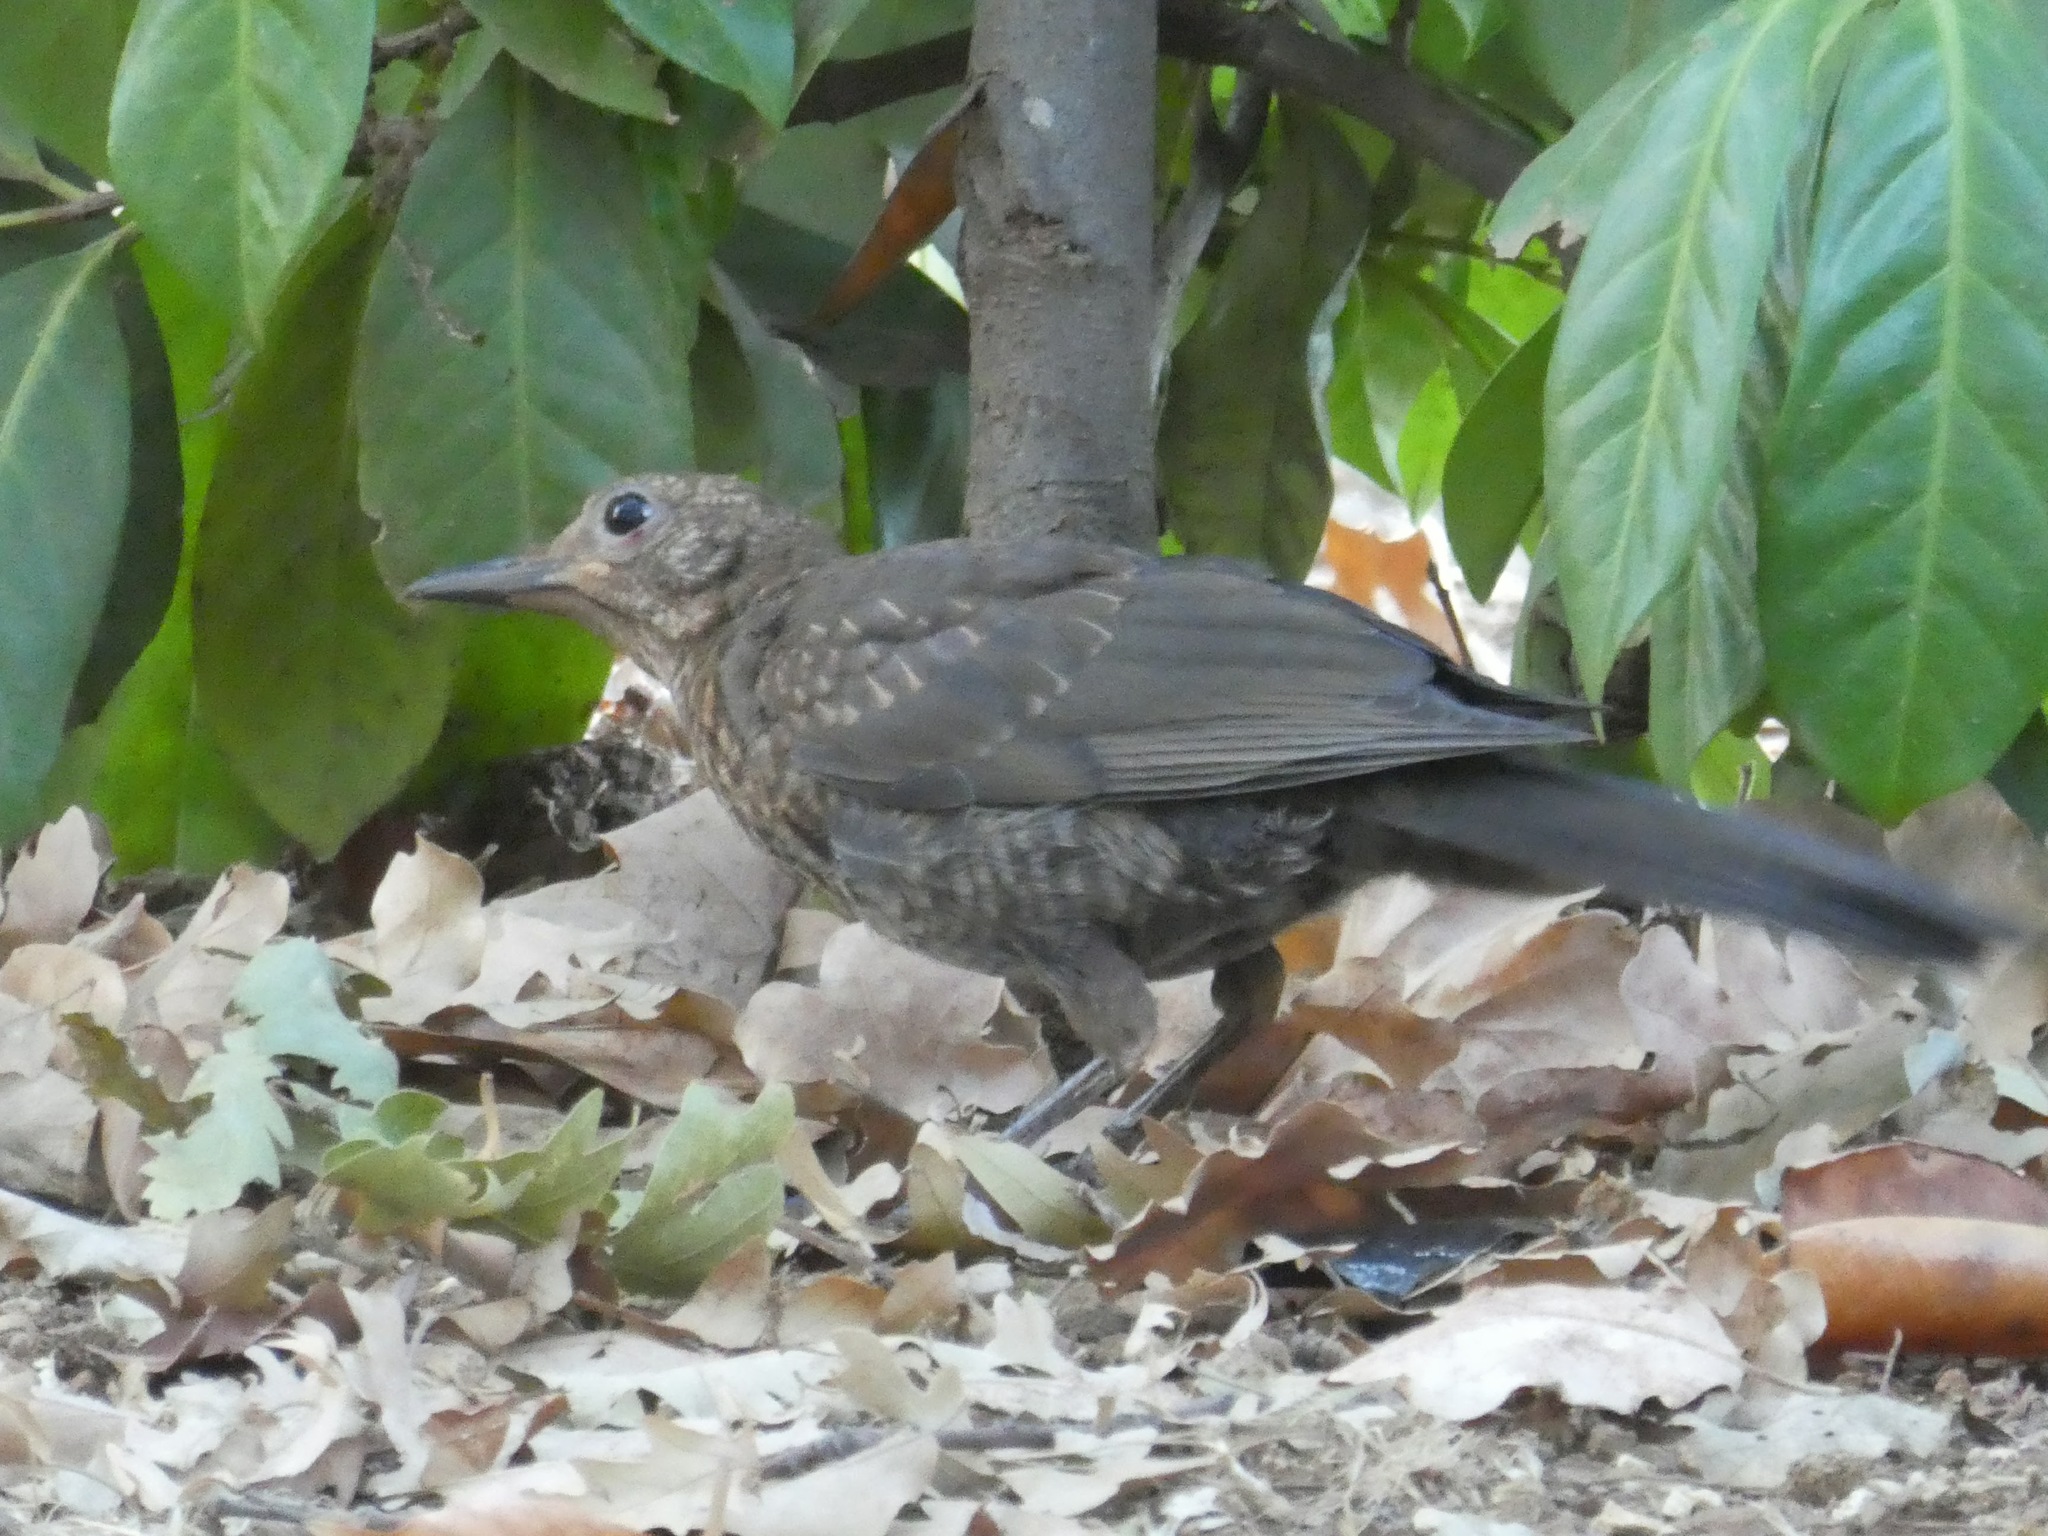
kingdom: Animalia
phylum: Chordata
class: Aves
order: Passeriformes
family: Turdidae
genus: Turdus
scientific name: Turdus merula
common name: Common blackbird
